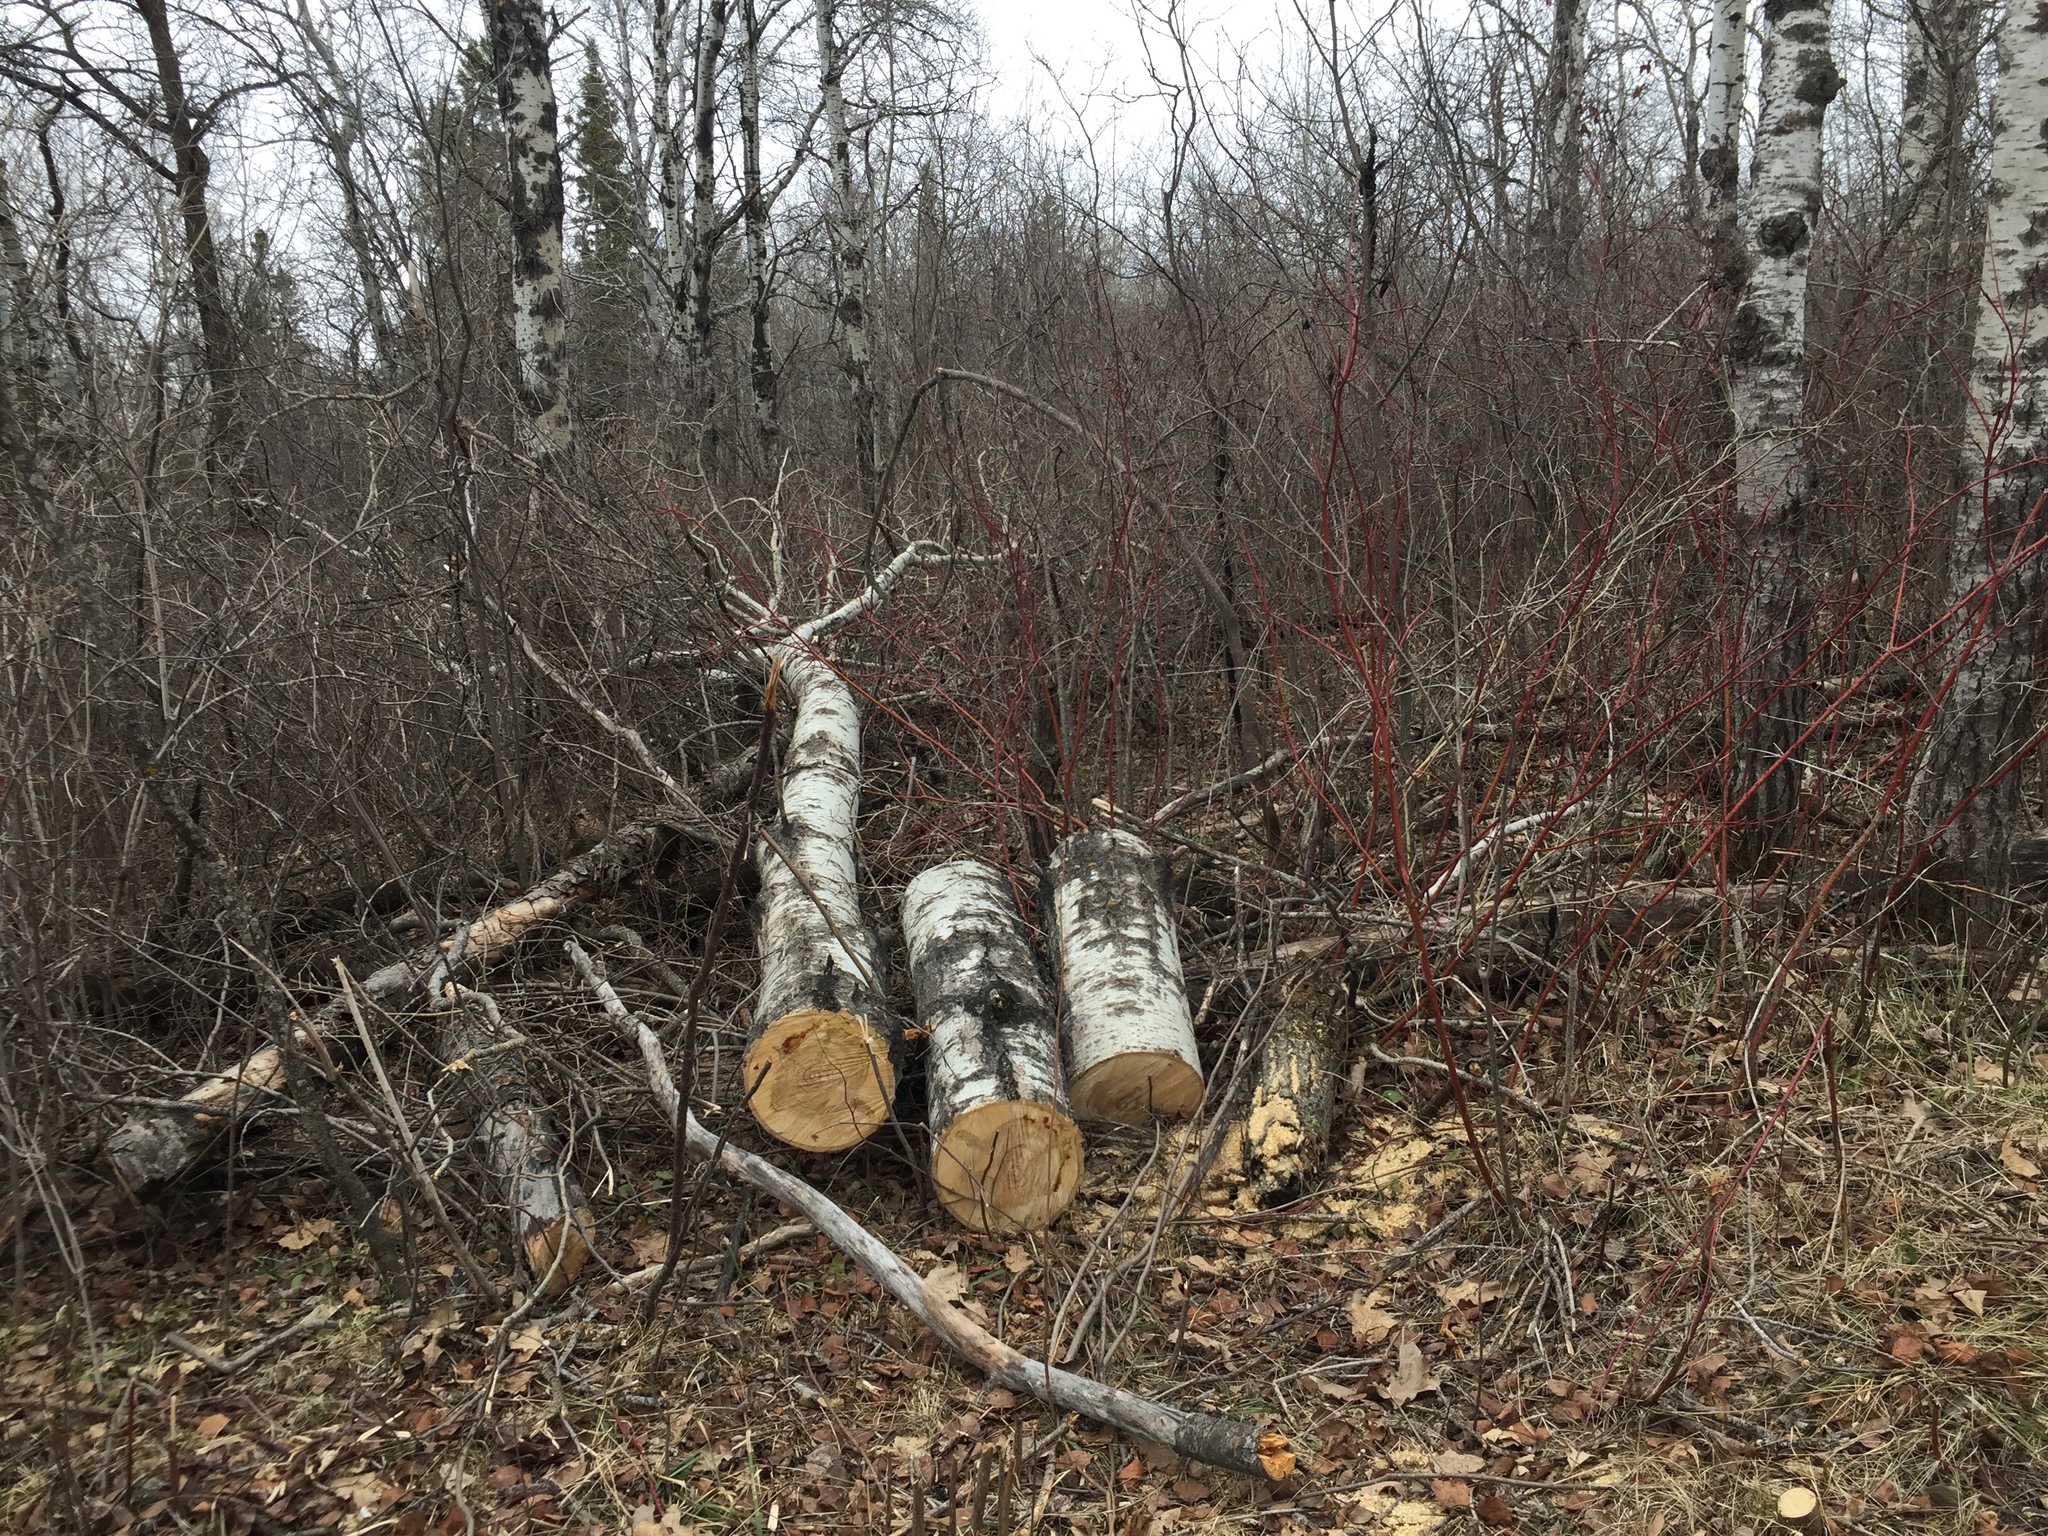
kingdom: Plantae
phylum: Tracheophyta
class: Magnoliopsida
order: Malpighiales
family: Salicaceae
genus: Populus
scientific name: Populus tremuloides
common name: Quaking aspen
